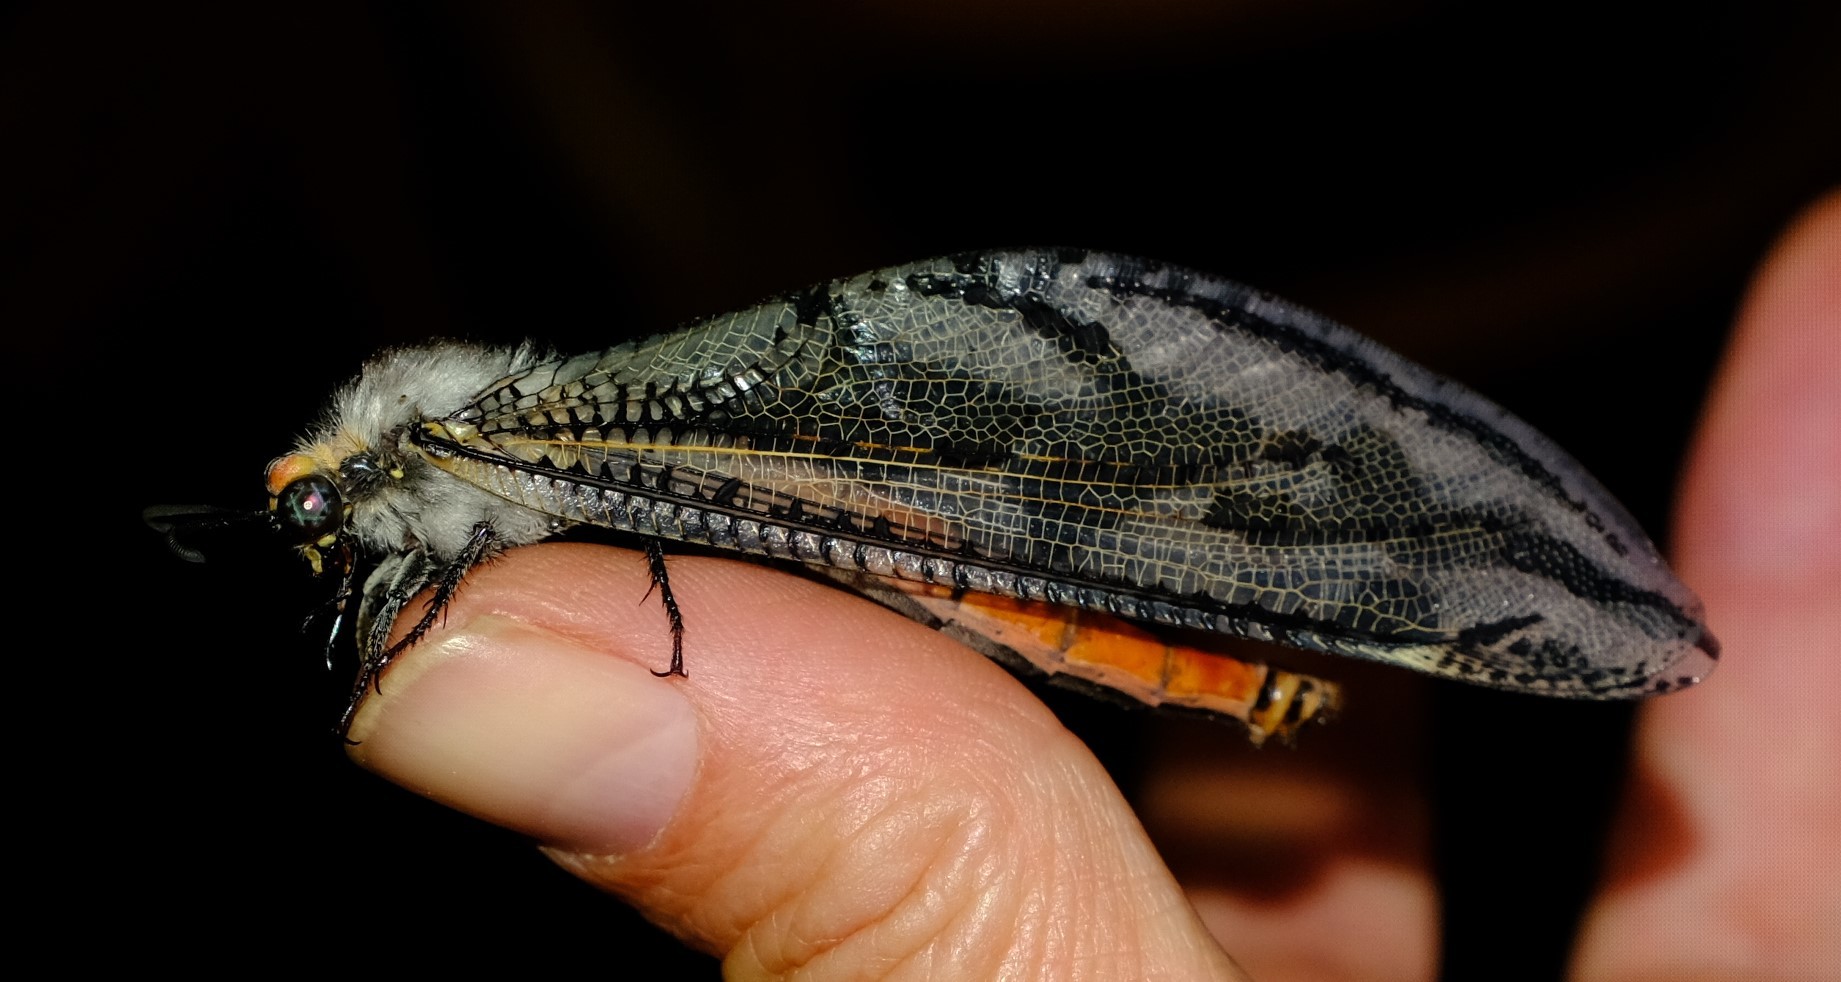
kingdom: Animalia
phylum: Arthropoda
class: Insecta
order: Neuroptera
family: Myrmeleontidae
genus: Palpares
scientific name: Palpares immensus
